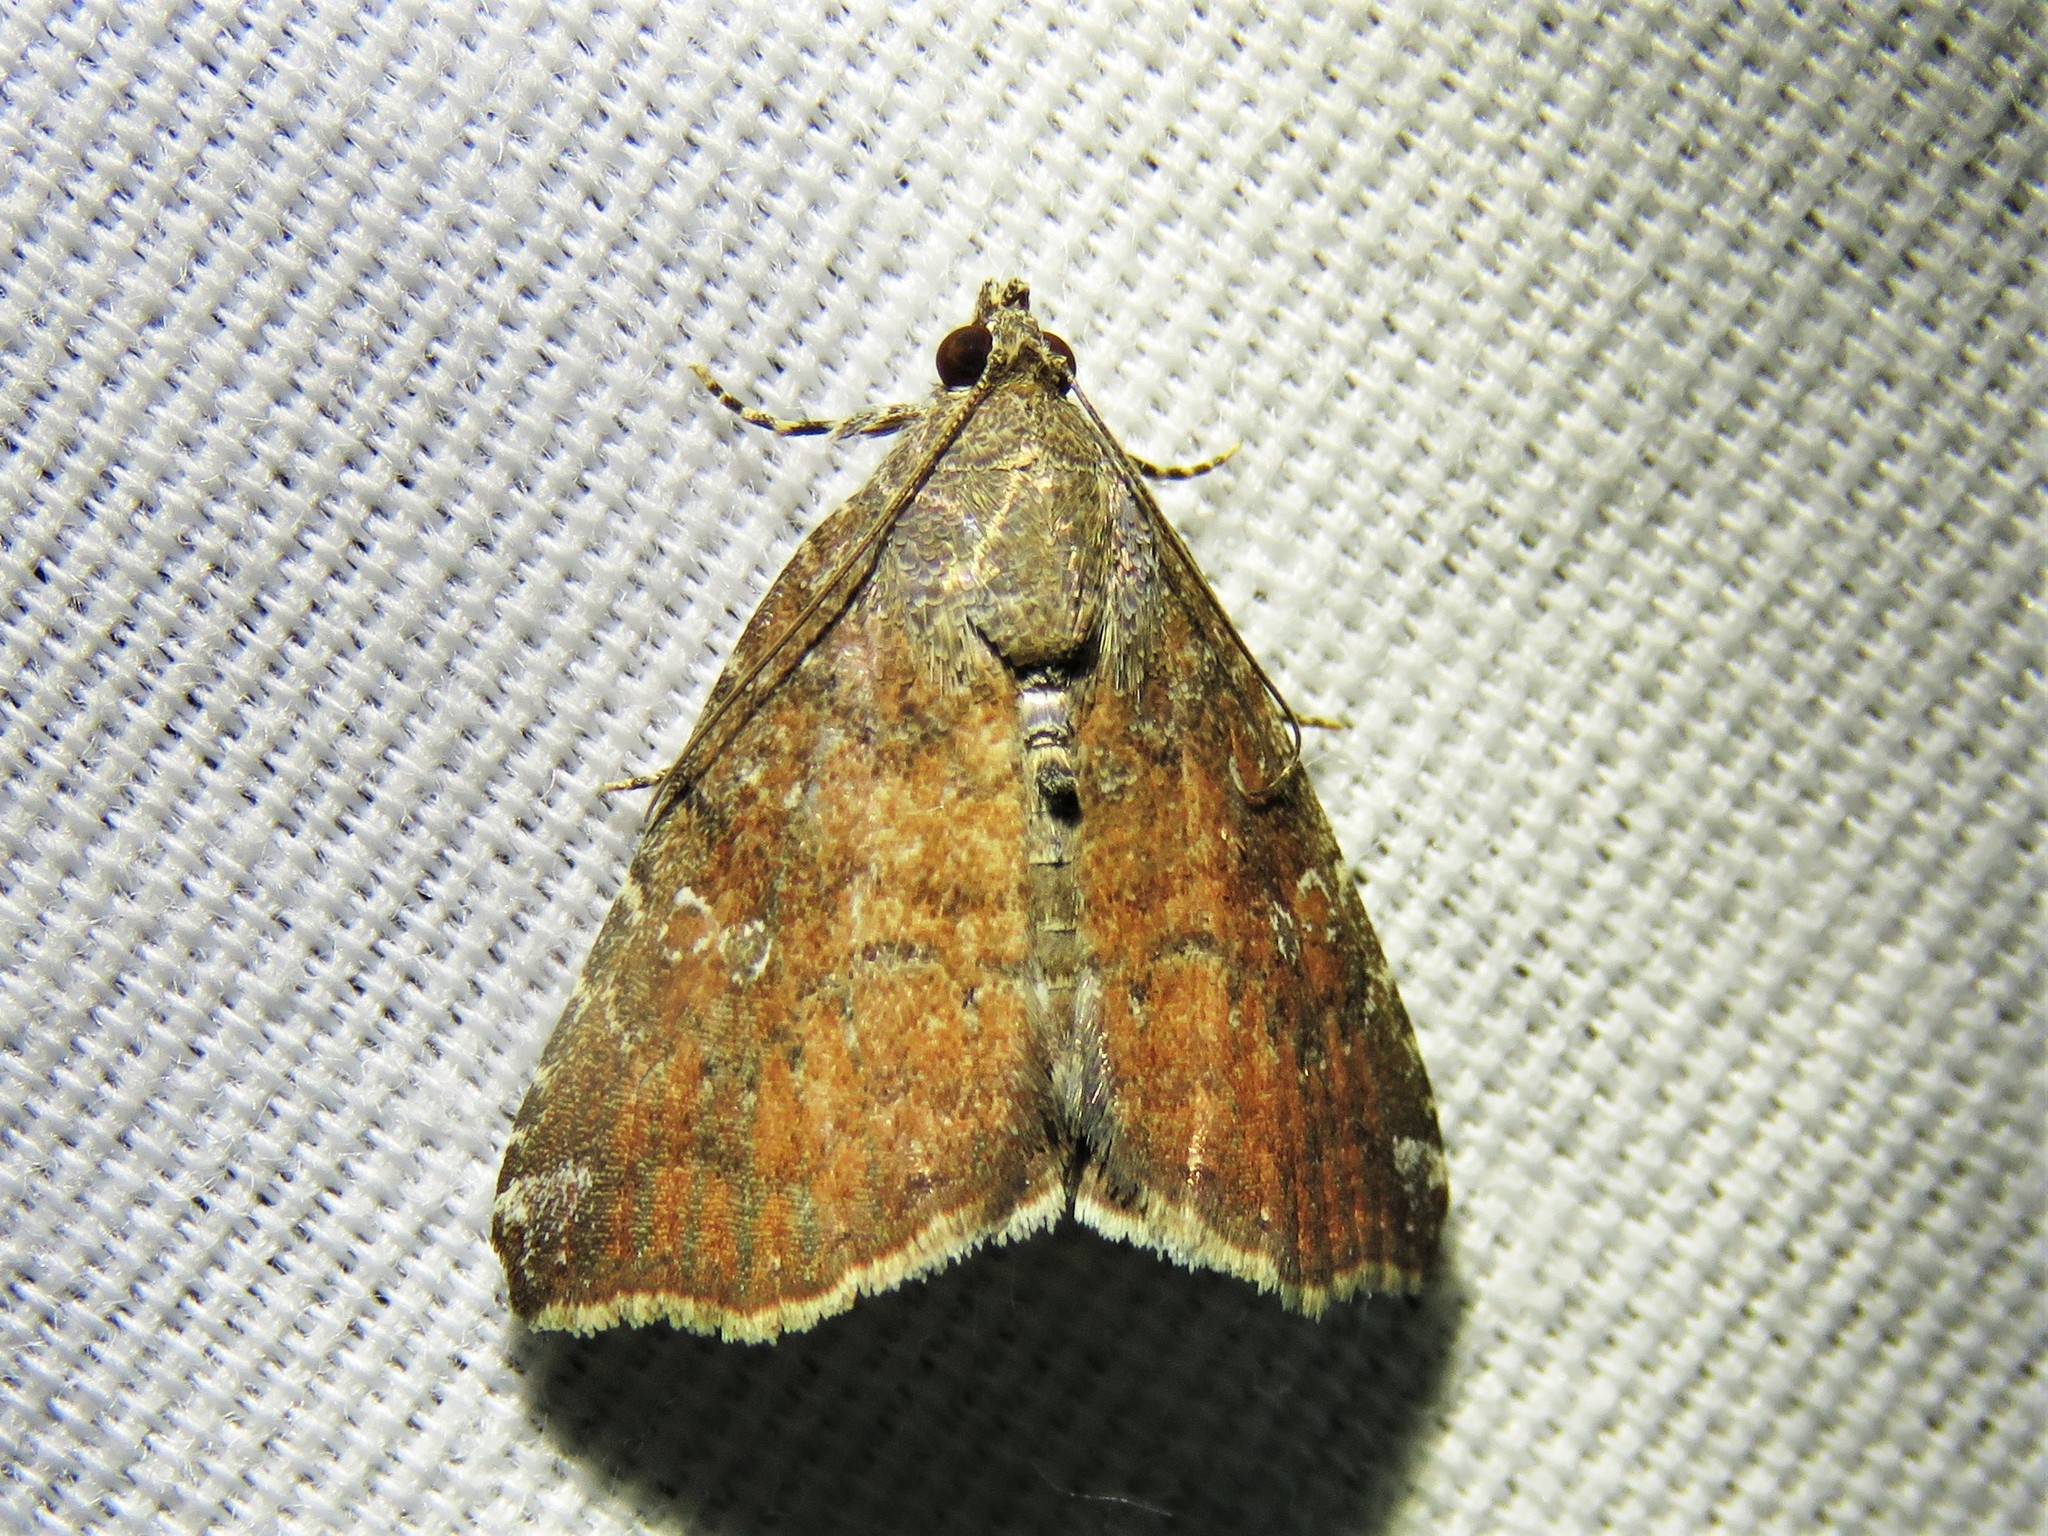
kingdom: Animalia
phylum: Arthropoda
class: Insecta
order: Lepidoptera
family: Noctuidae
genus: Amyna
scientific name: Amyna bullula
